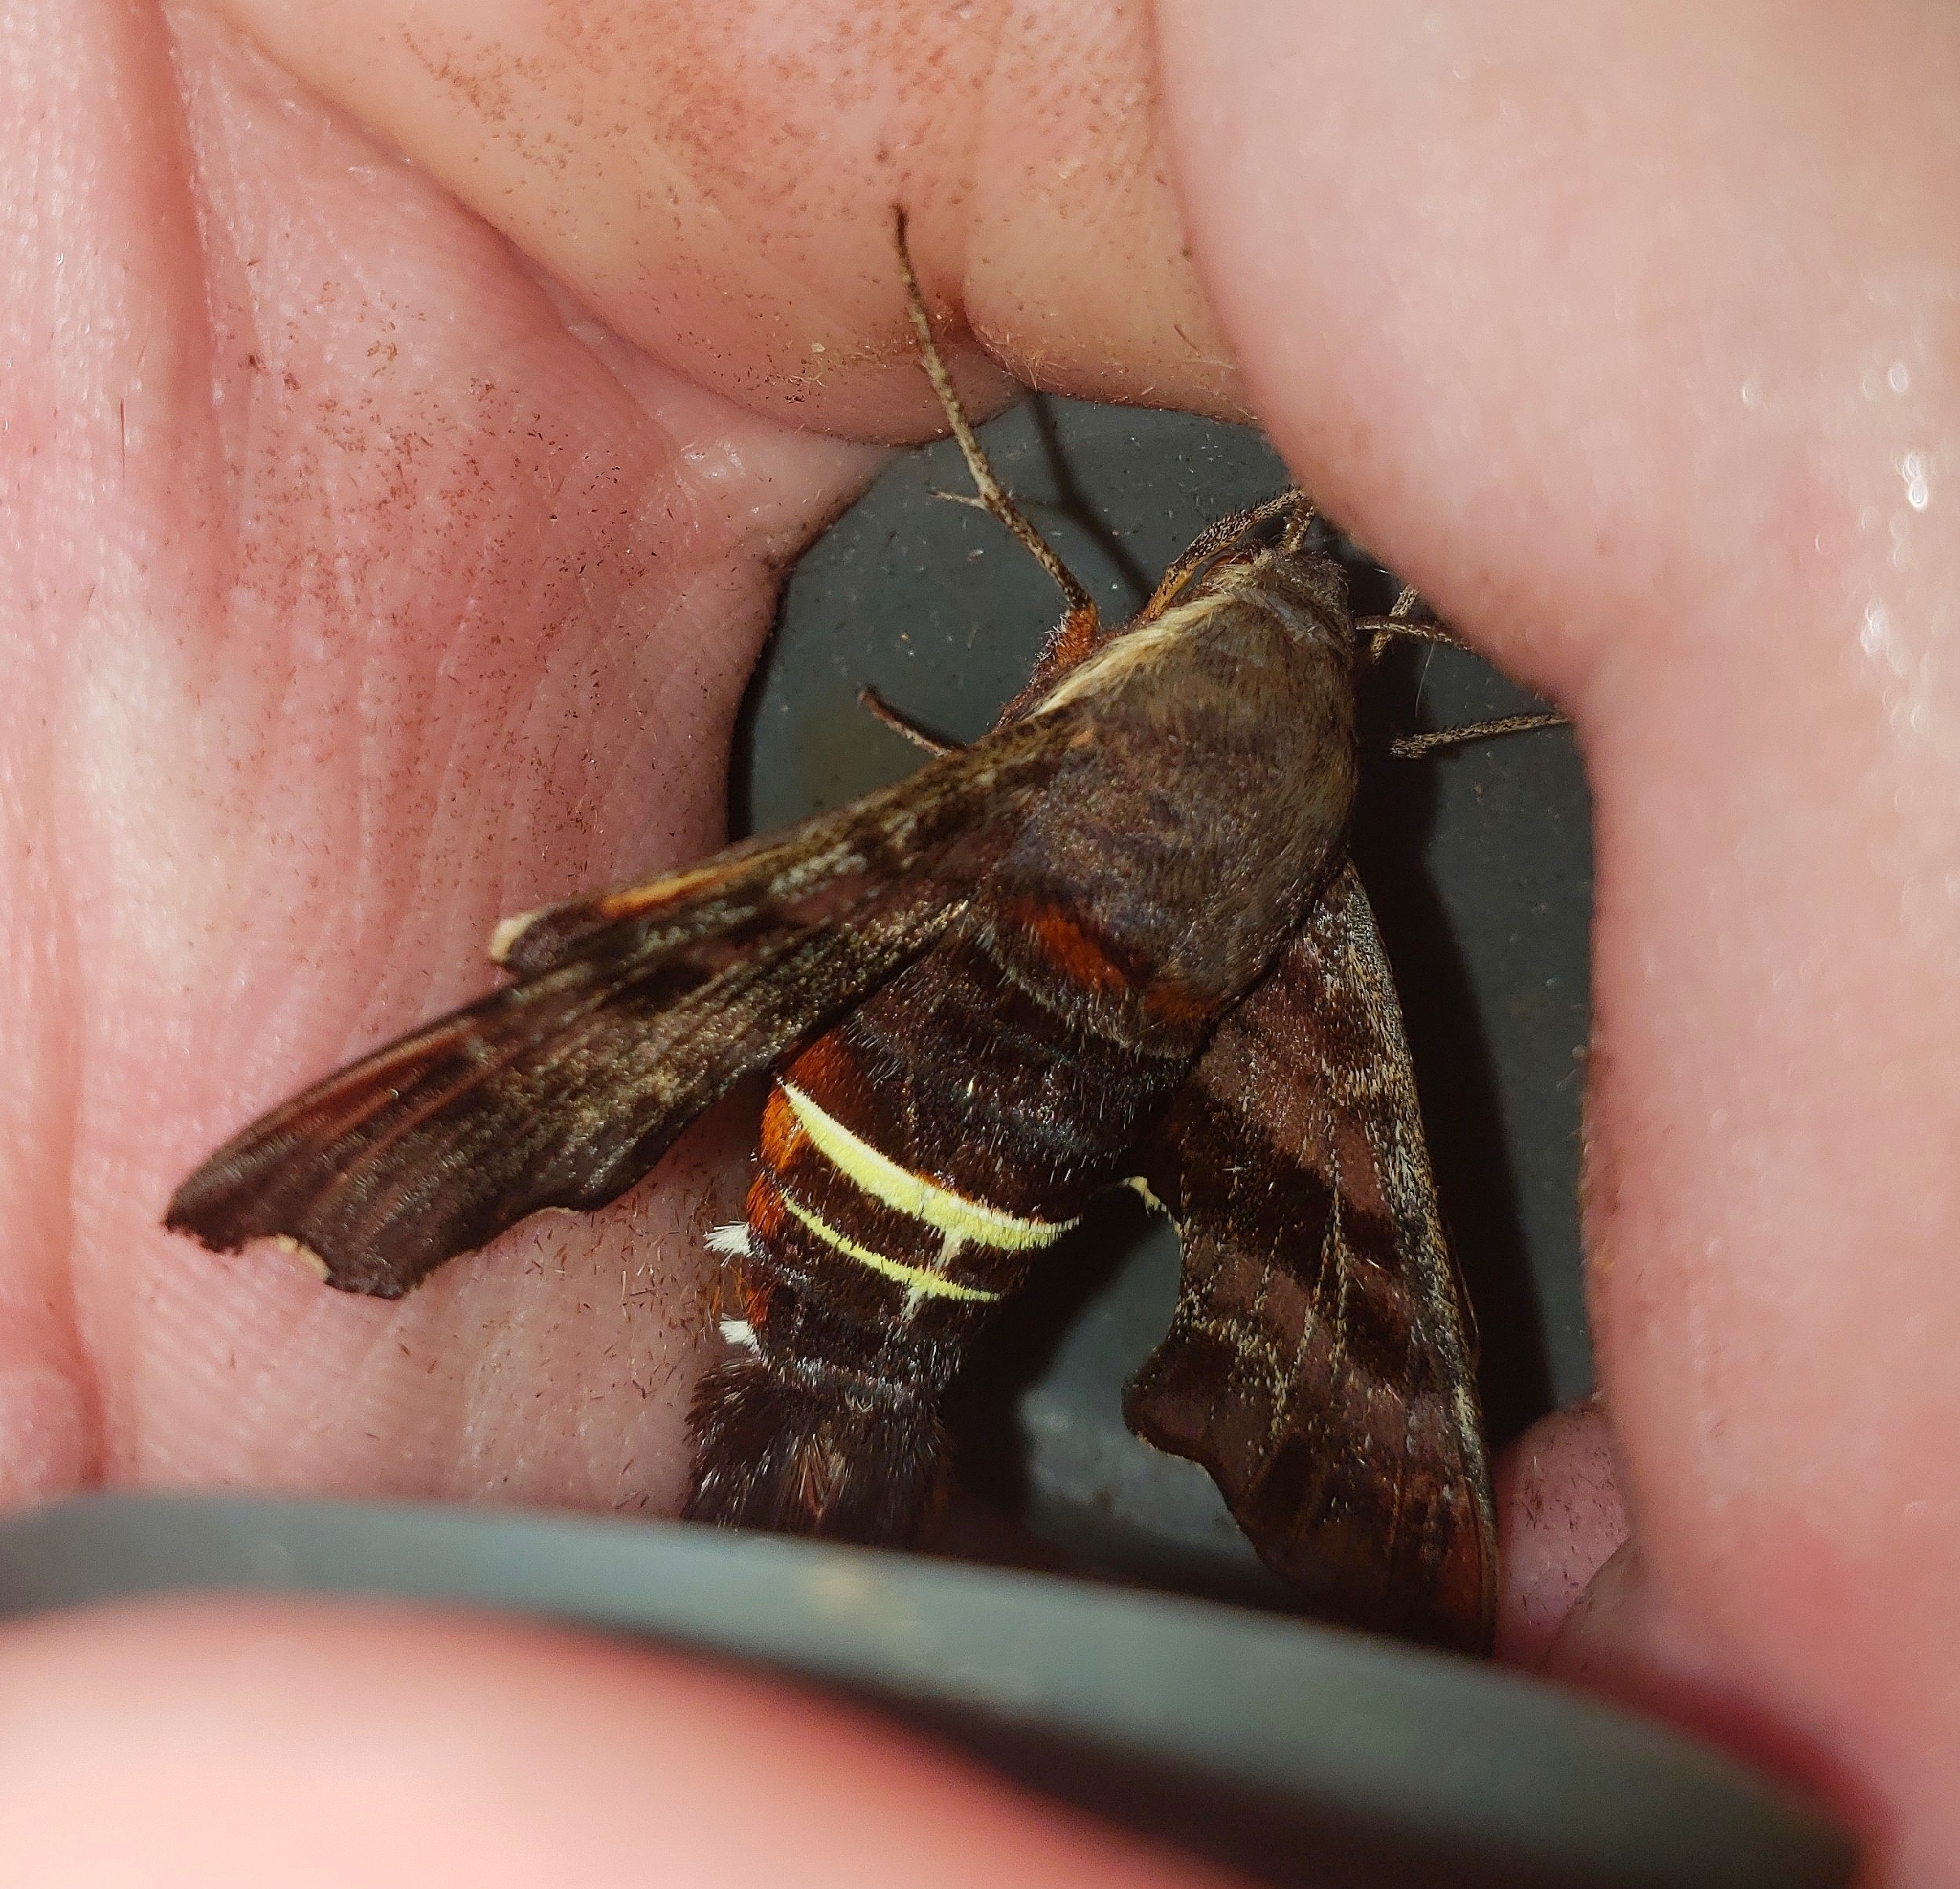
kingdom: Animalia
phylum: Arthropoda
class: Insecta
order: Lepidoptera
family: Sphingidae
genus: Amphion
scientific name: Amphion floridensis
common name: Nessus sphinx
